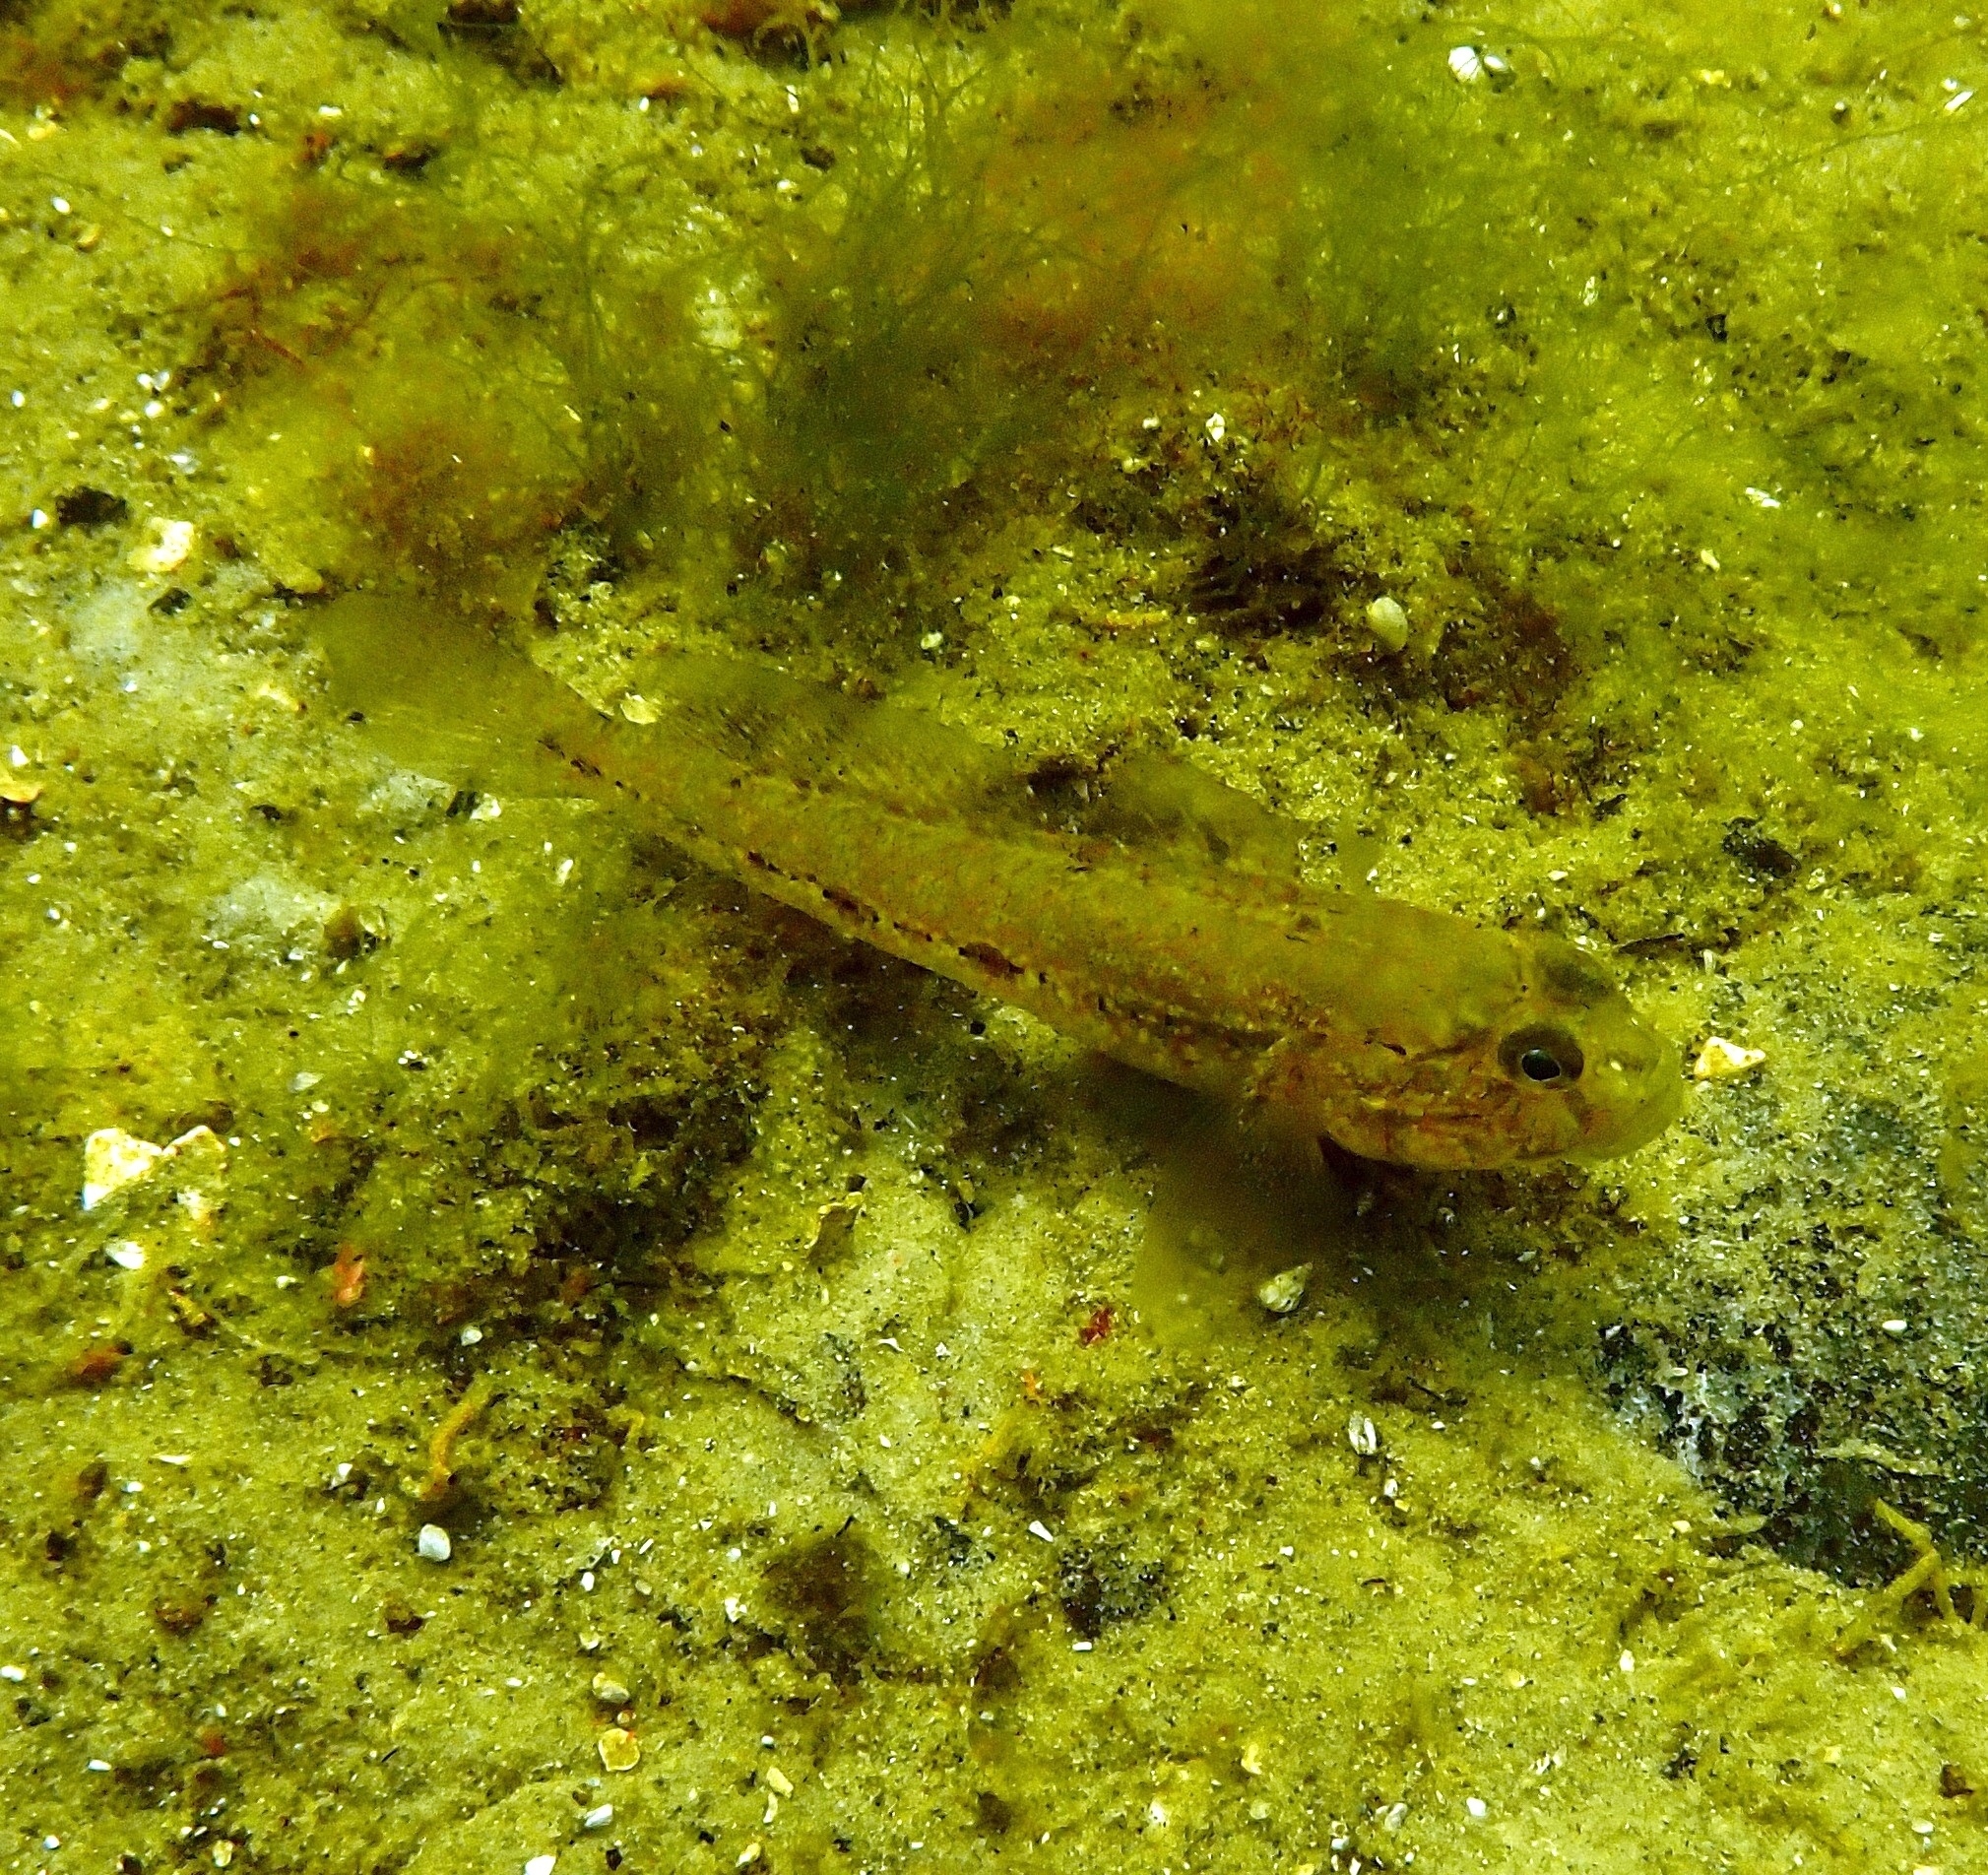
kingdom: Animalia
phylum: Chordata
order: Perciformes
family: Gobiidae
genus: Gobius
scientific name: Gobius niger
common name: Black goby
